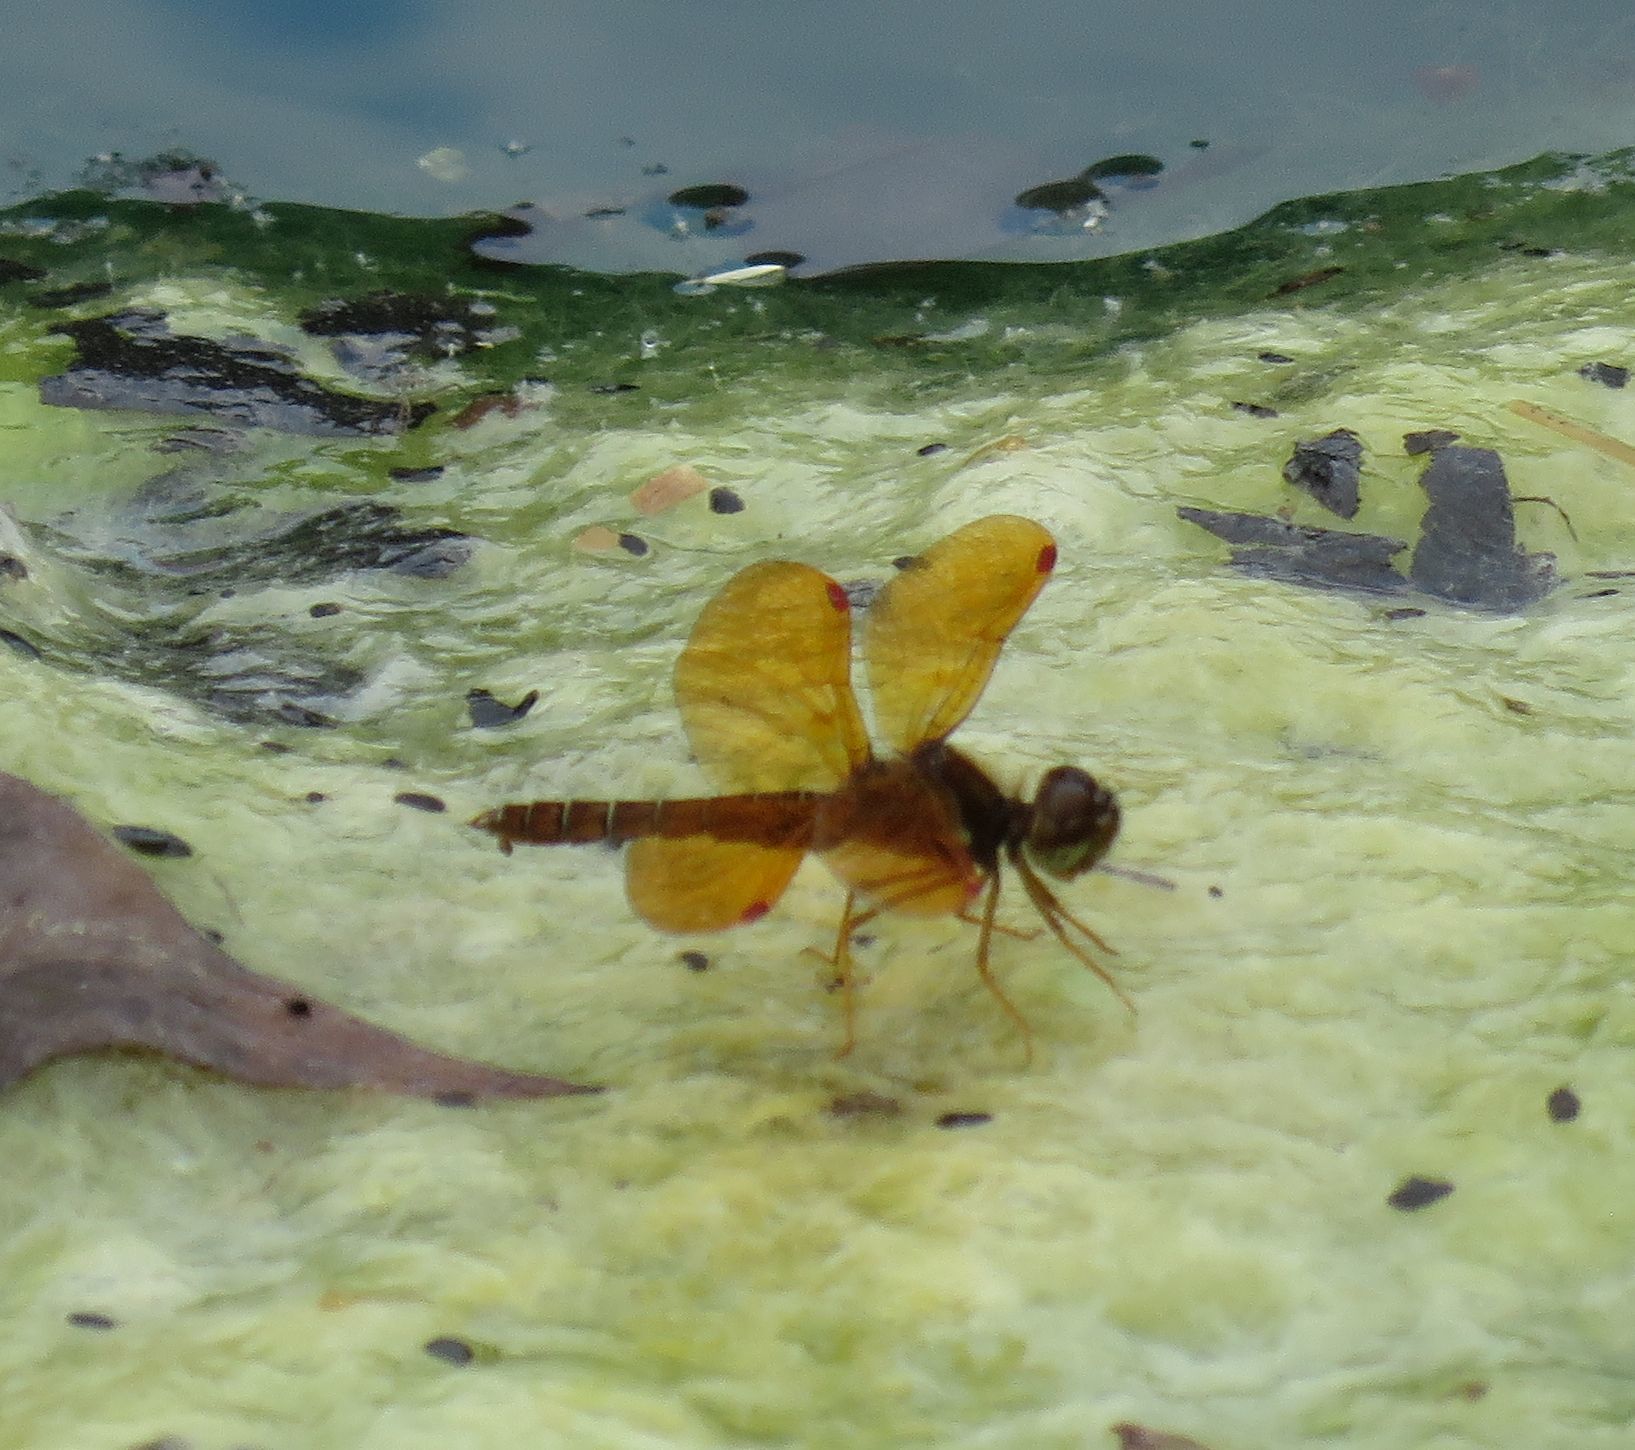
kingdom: Animalia
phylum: Arthropoda
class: Insecta
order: Odonata
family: Libellulidae
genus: Perithemis
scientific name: Perithemis tenera
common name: Eastern amberwing
